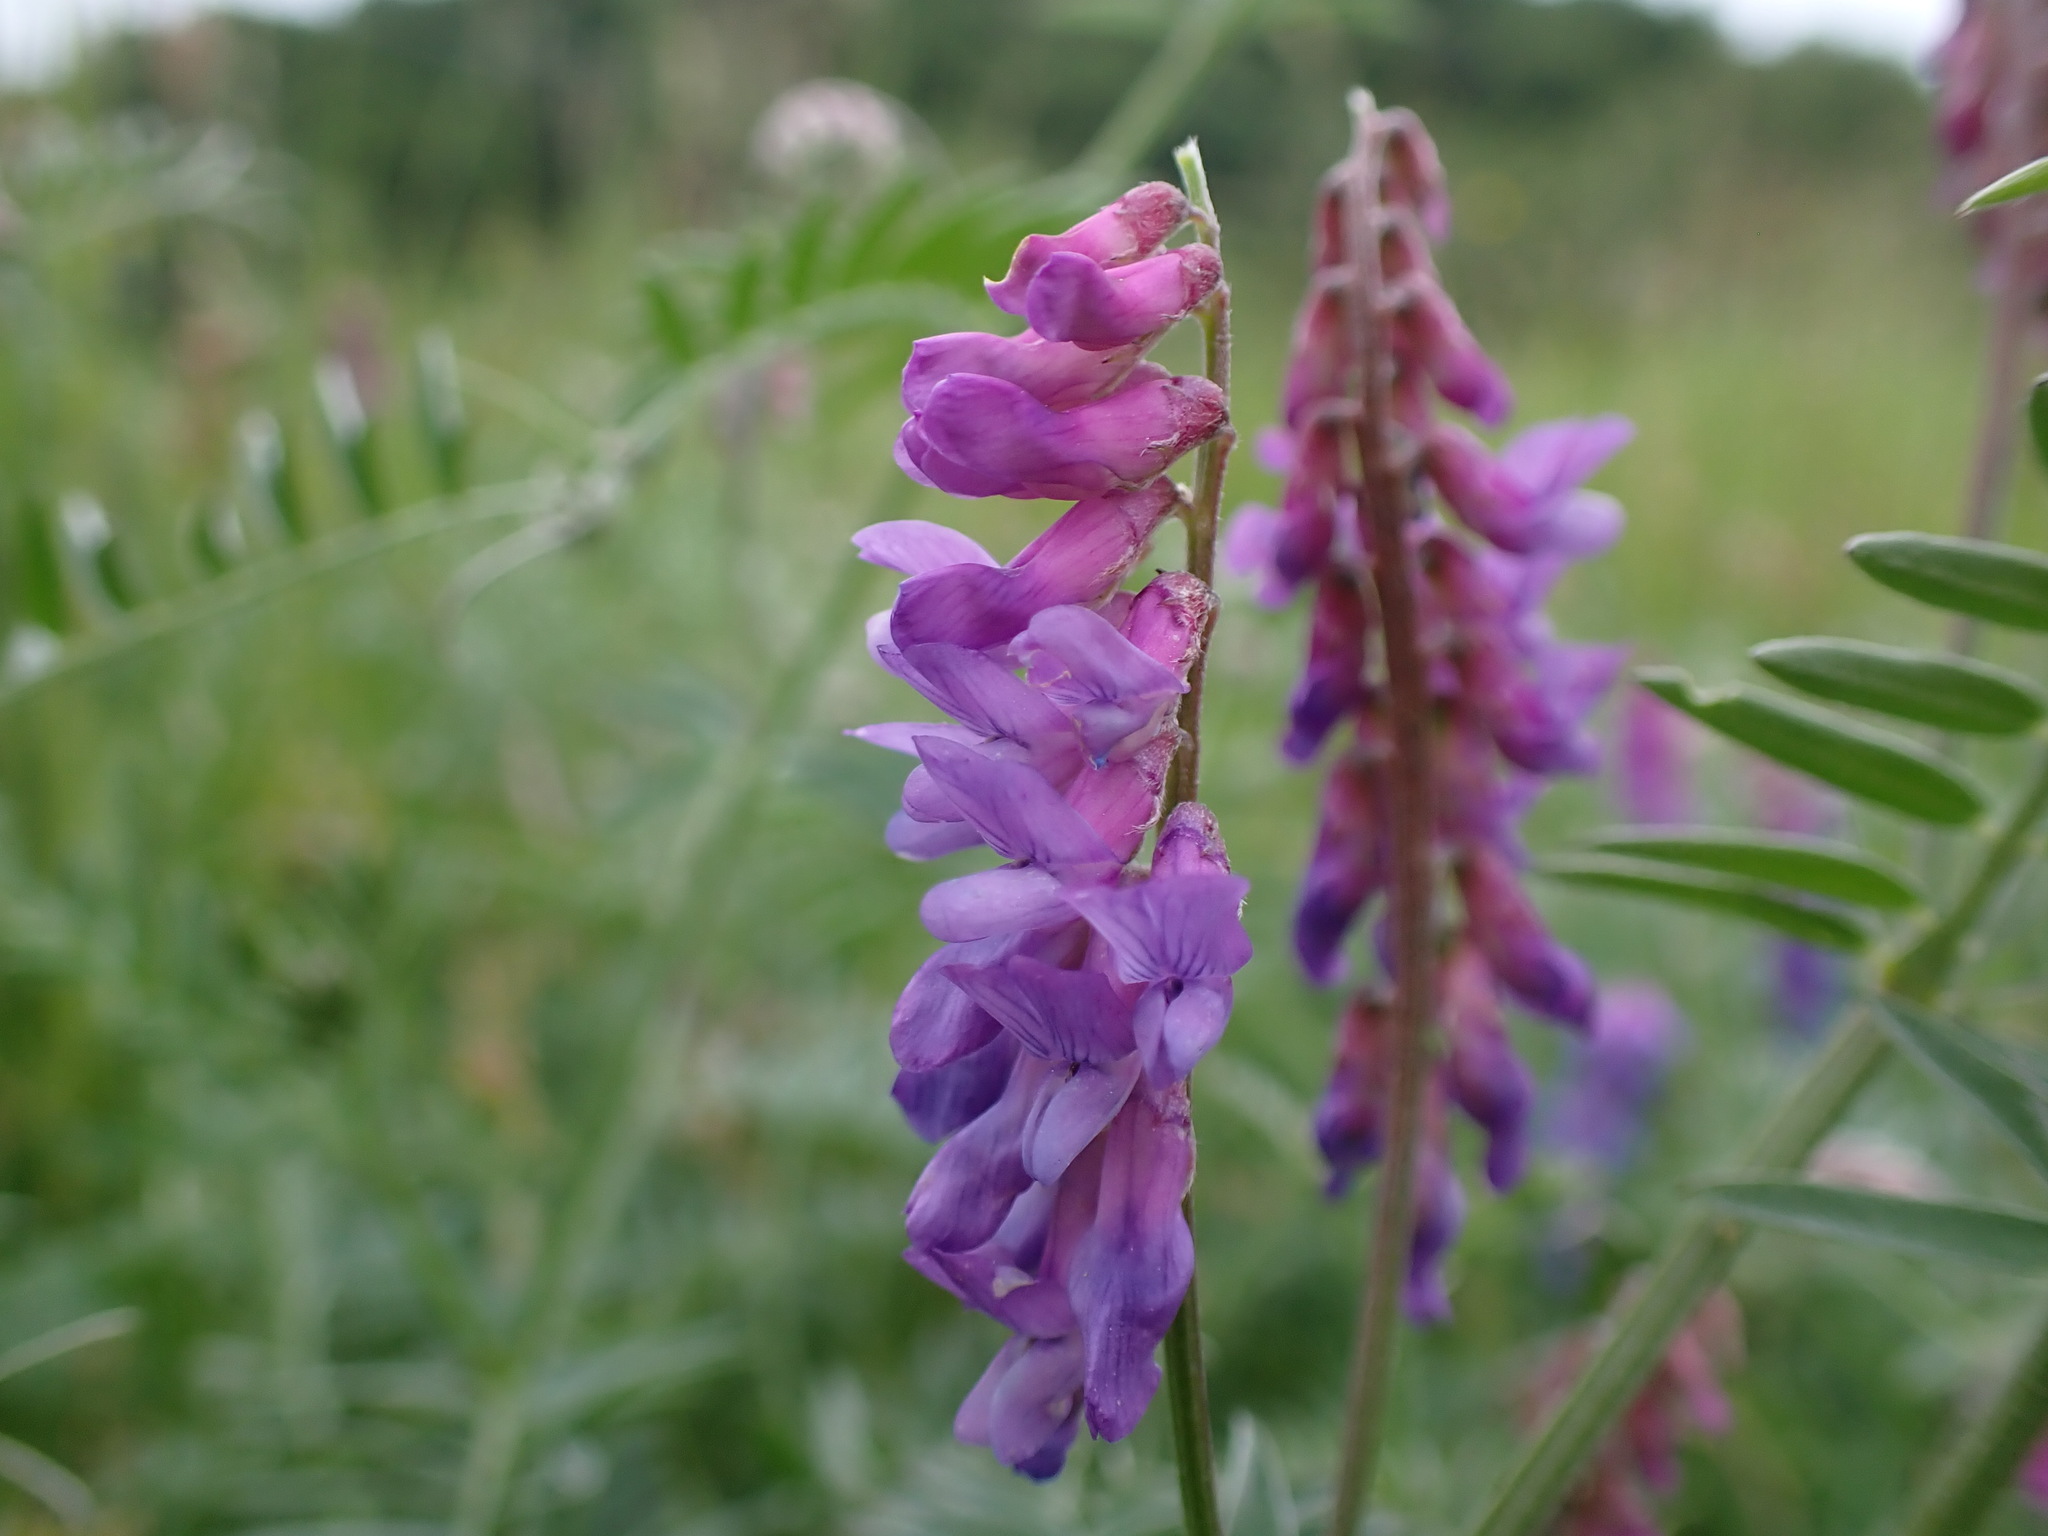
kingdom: Plantae
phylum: Tracheophyta
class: Magnoliopsida
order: Fabales
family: Fabaceae
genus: Vicia
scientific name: Vicia cracca
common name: Bird vetch
